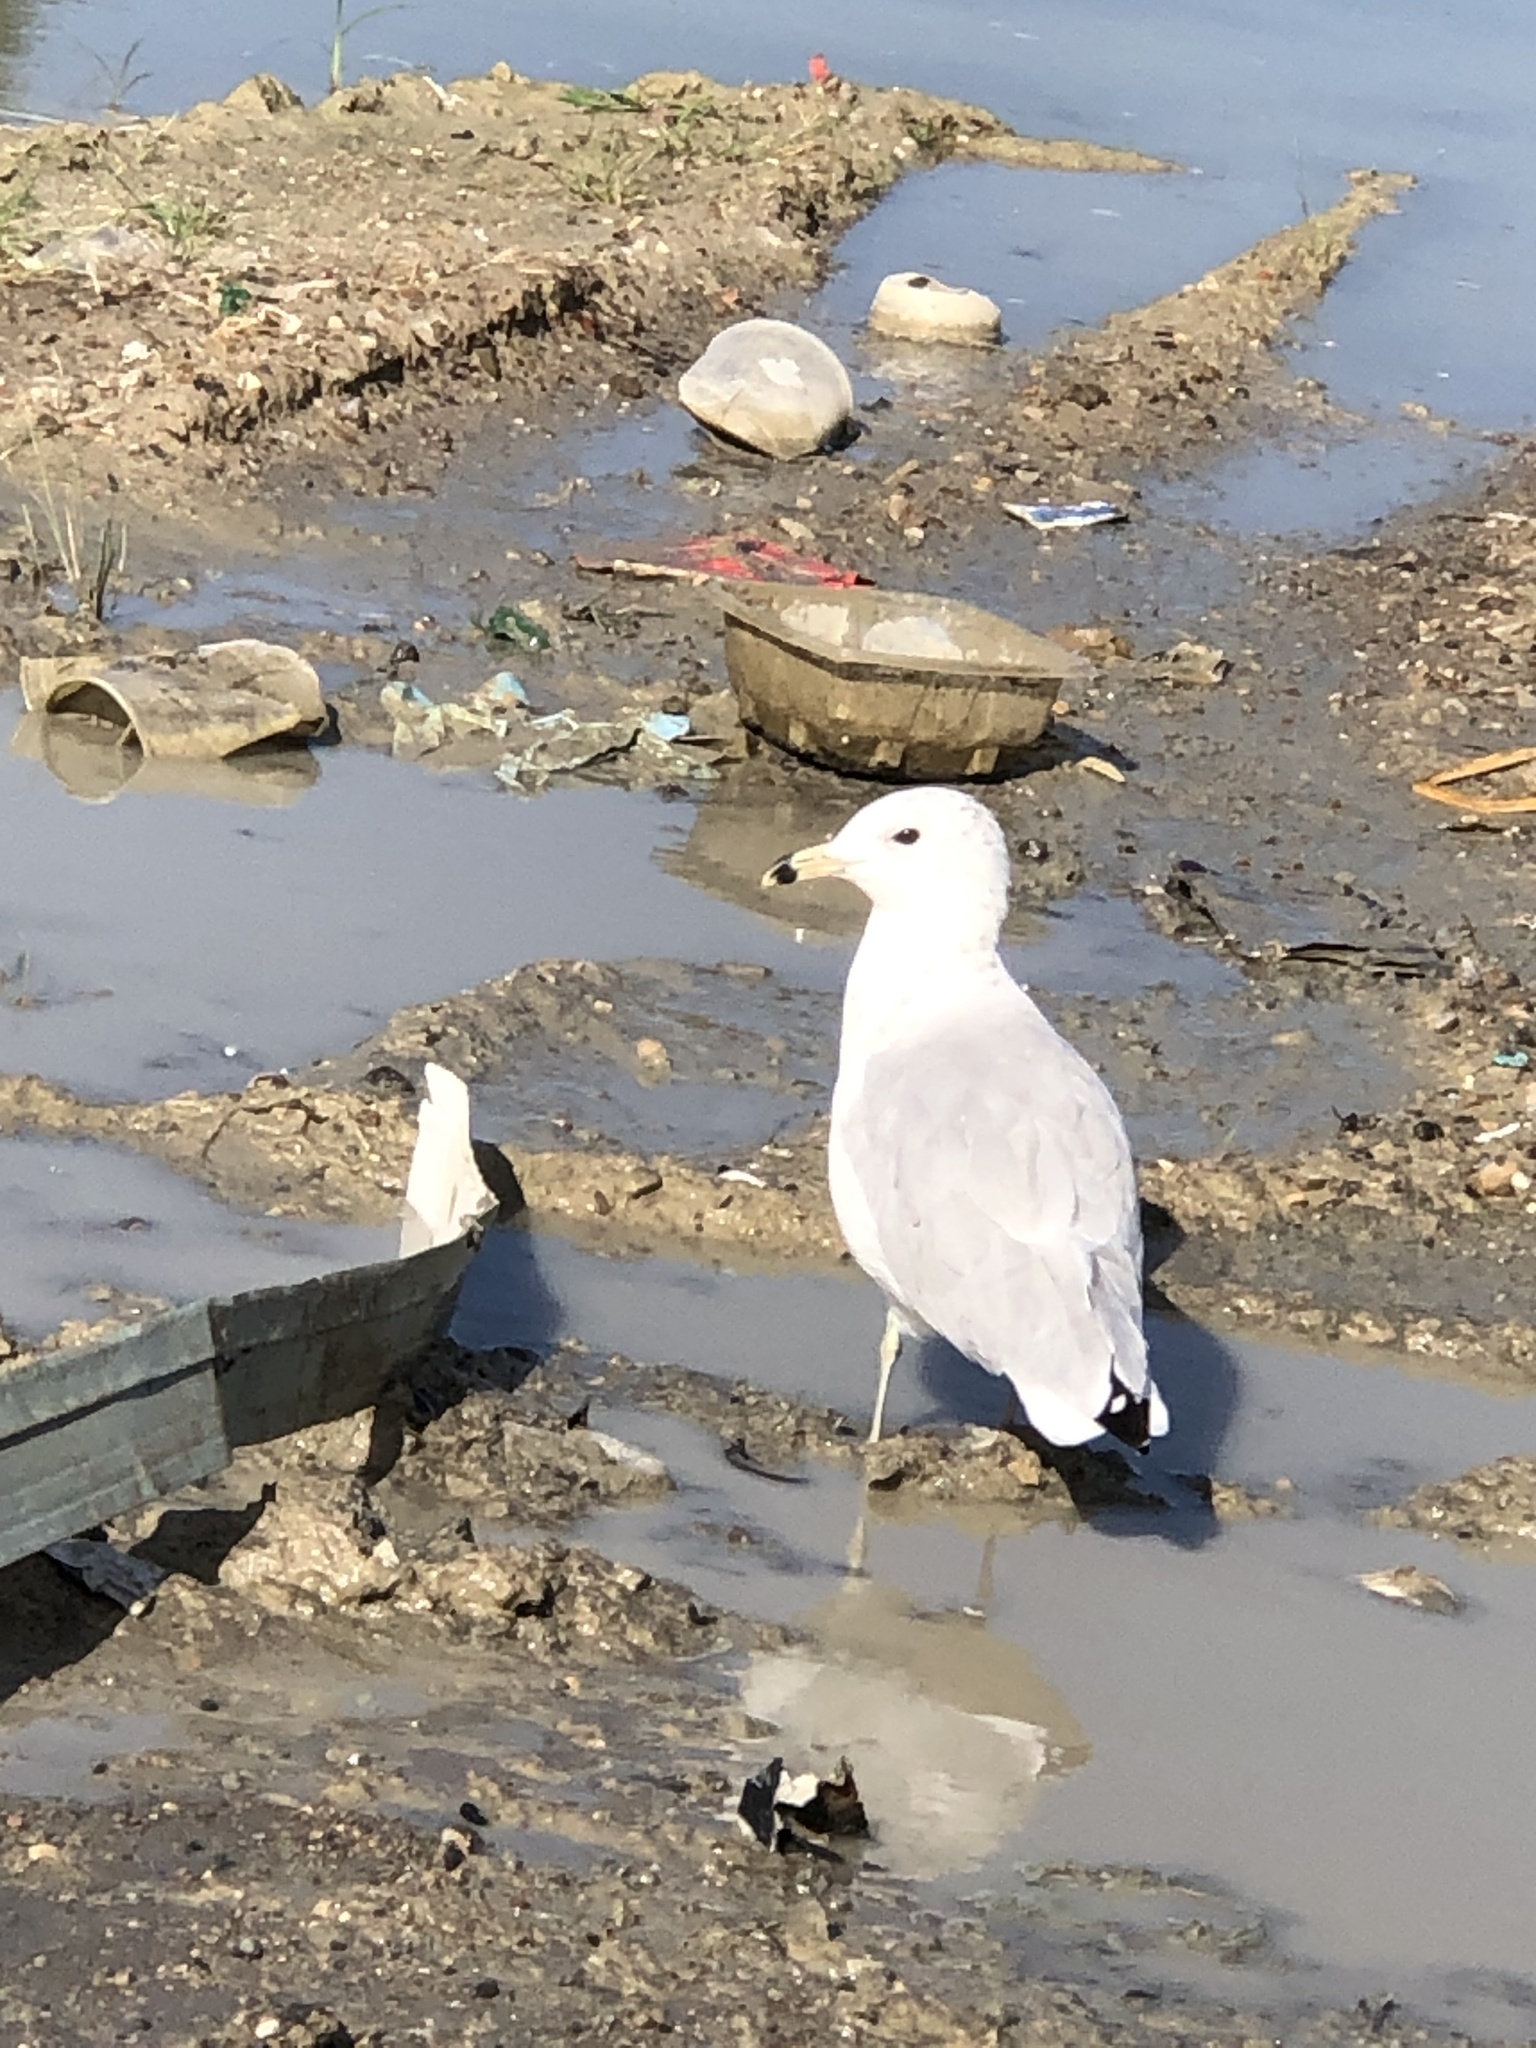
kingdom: Animalia
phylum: Chordata
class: Aves
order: Charadriiformes
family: Laridae
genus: Larus
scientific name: Larus delawarensis
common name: Ring-billed gull
